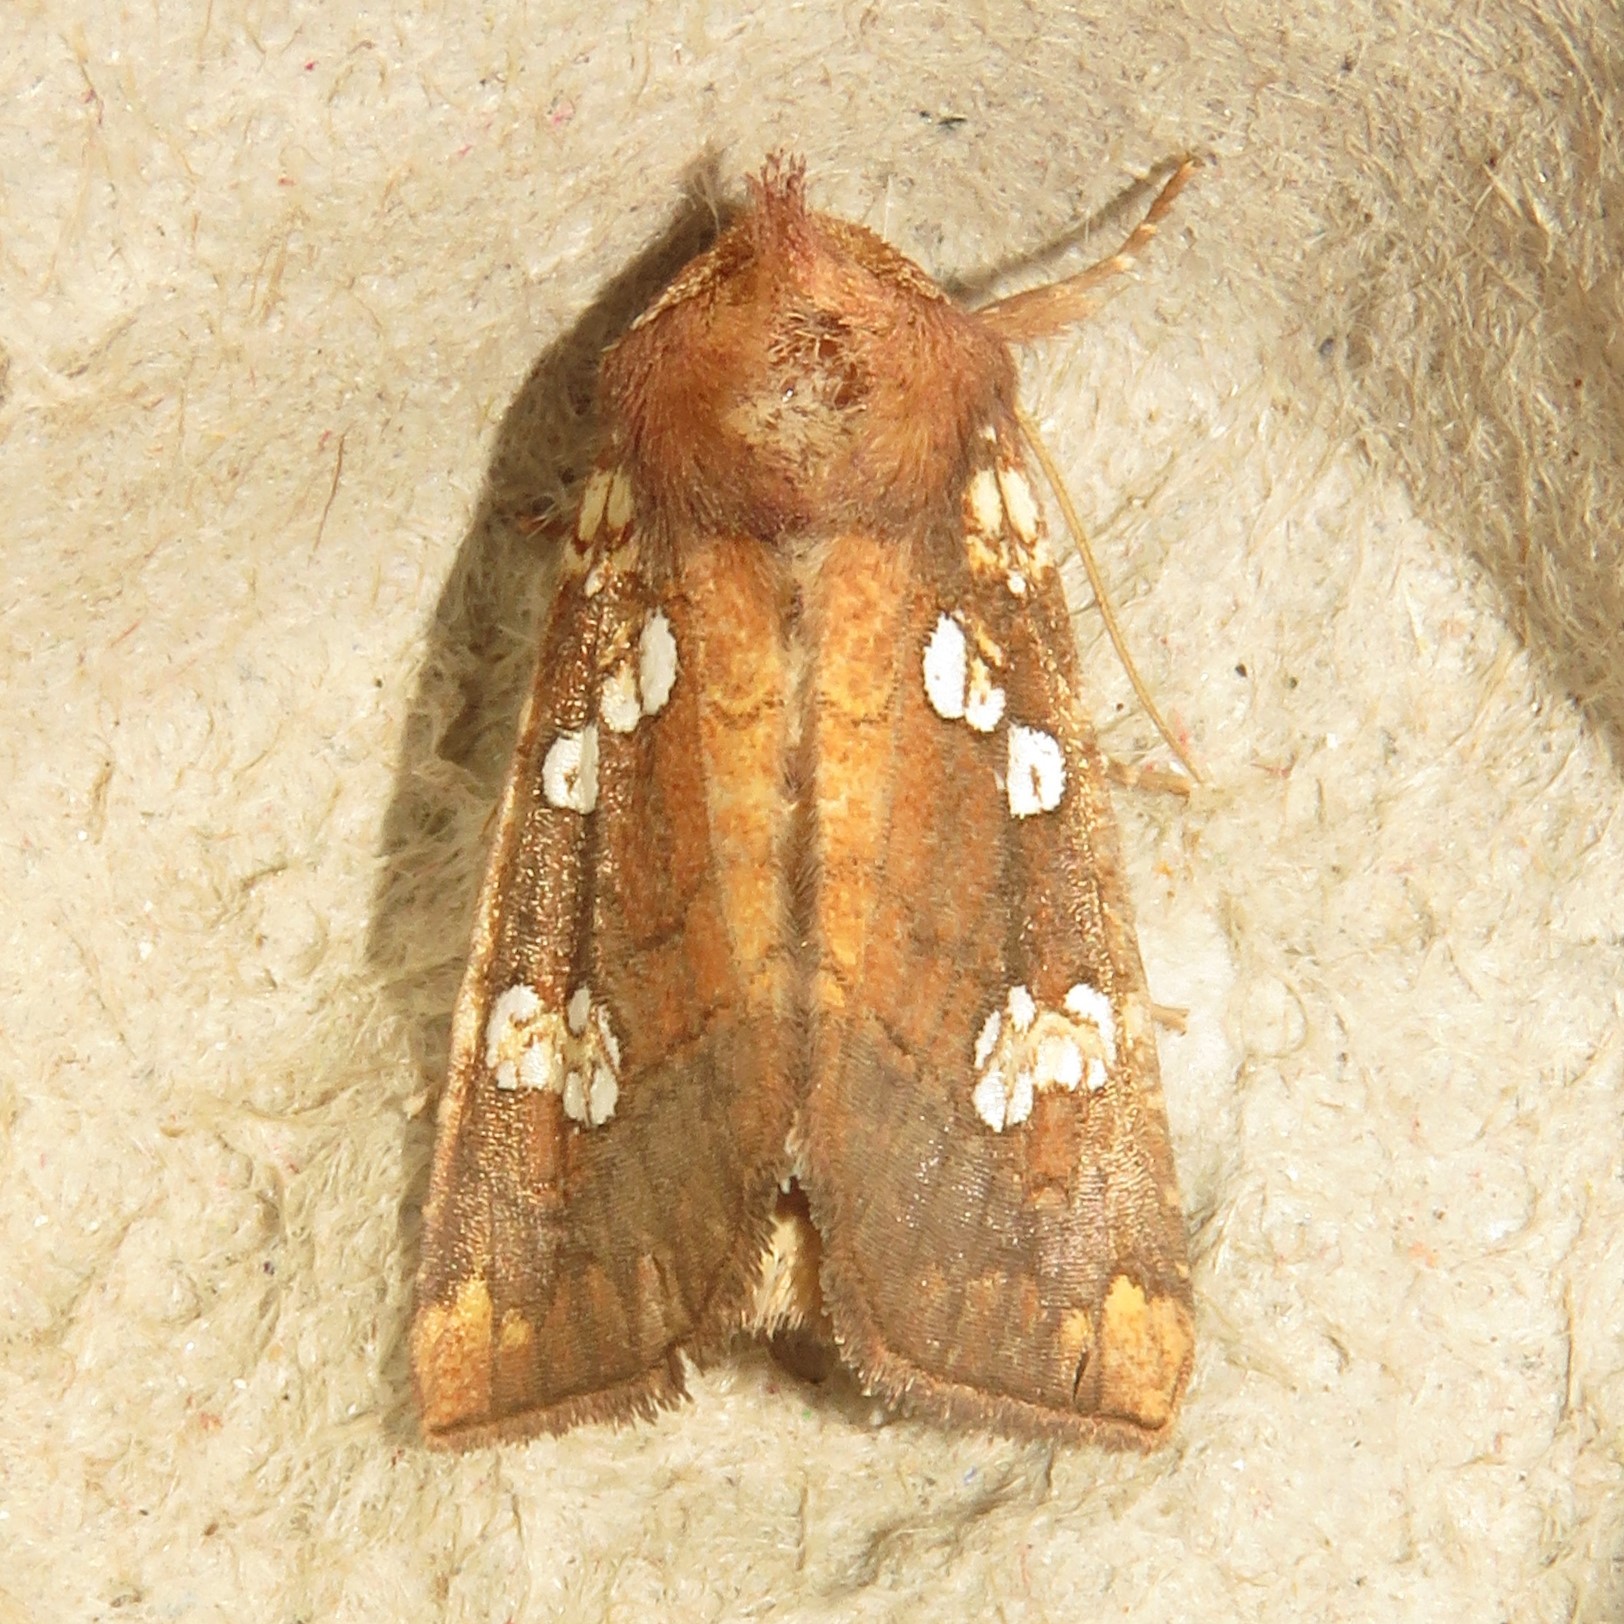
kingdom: Animalia
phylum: Arthropoda
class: Insecta
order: Lepidoptera
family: Noctuidae
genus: Papaipema
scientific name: Papaipema insulidens
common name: Ragwort stem borer moth
